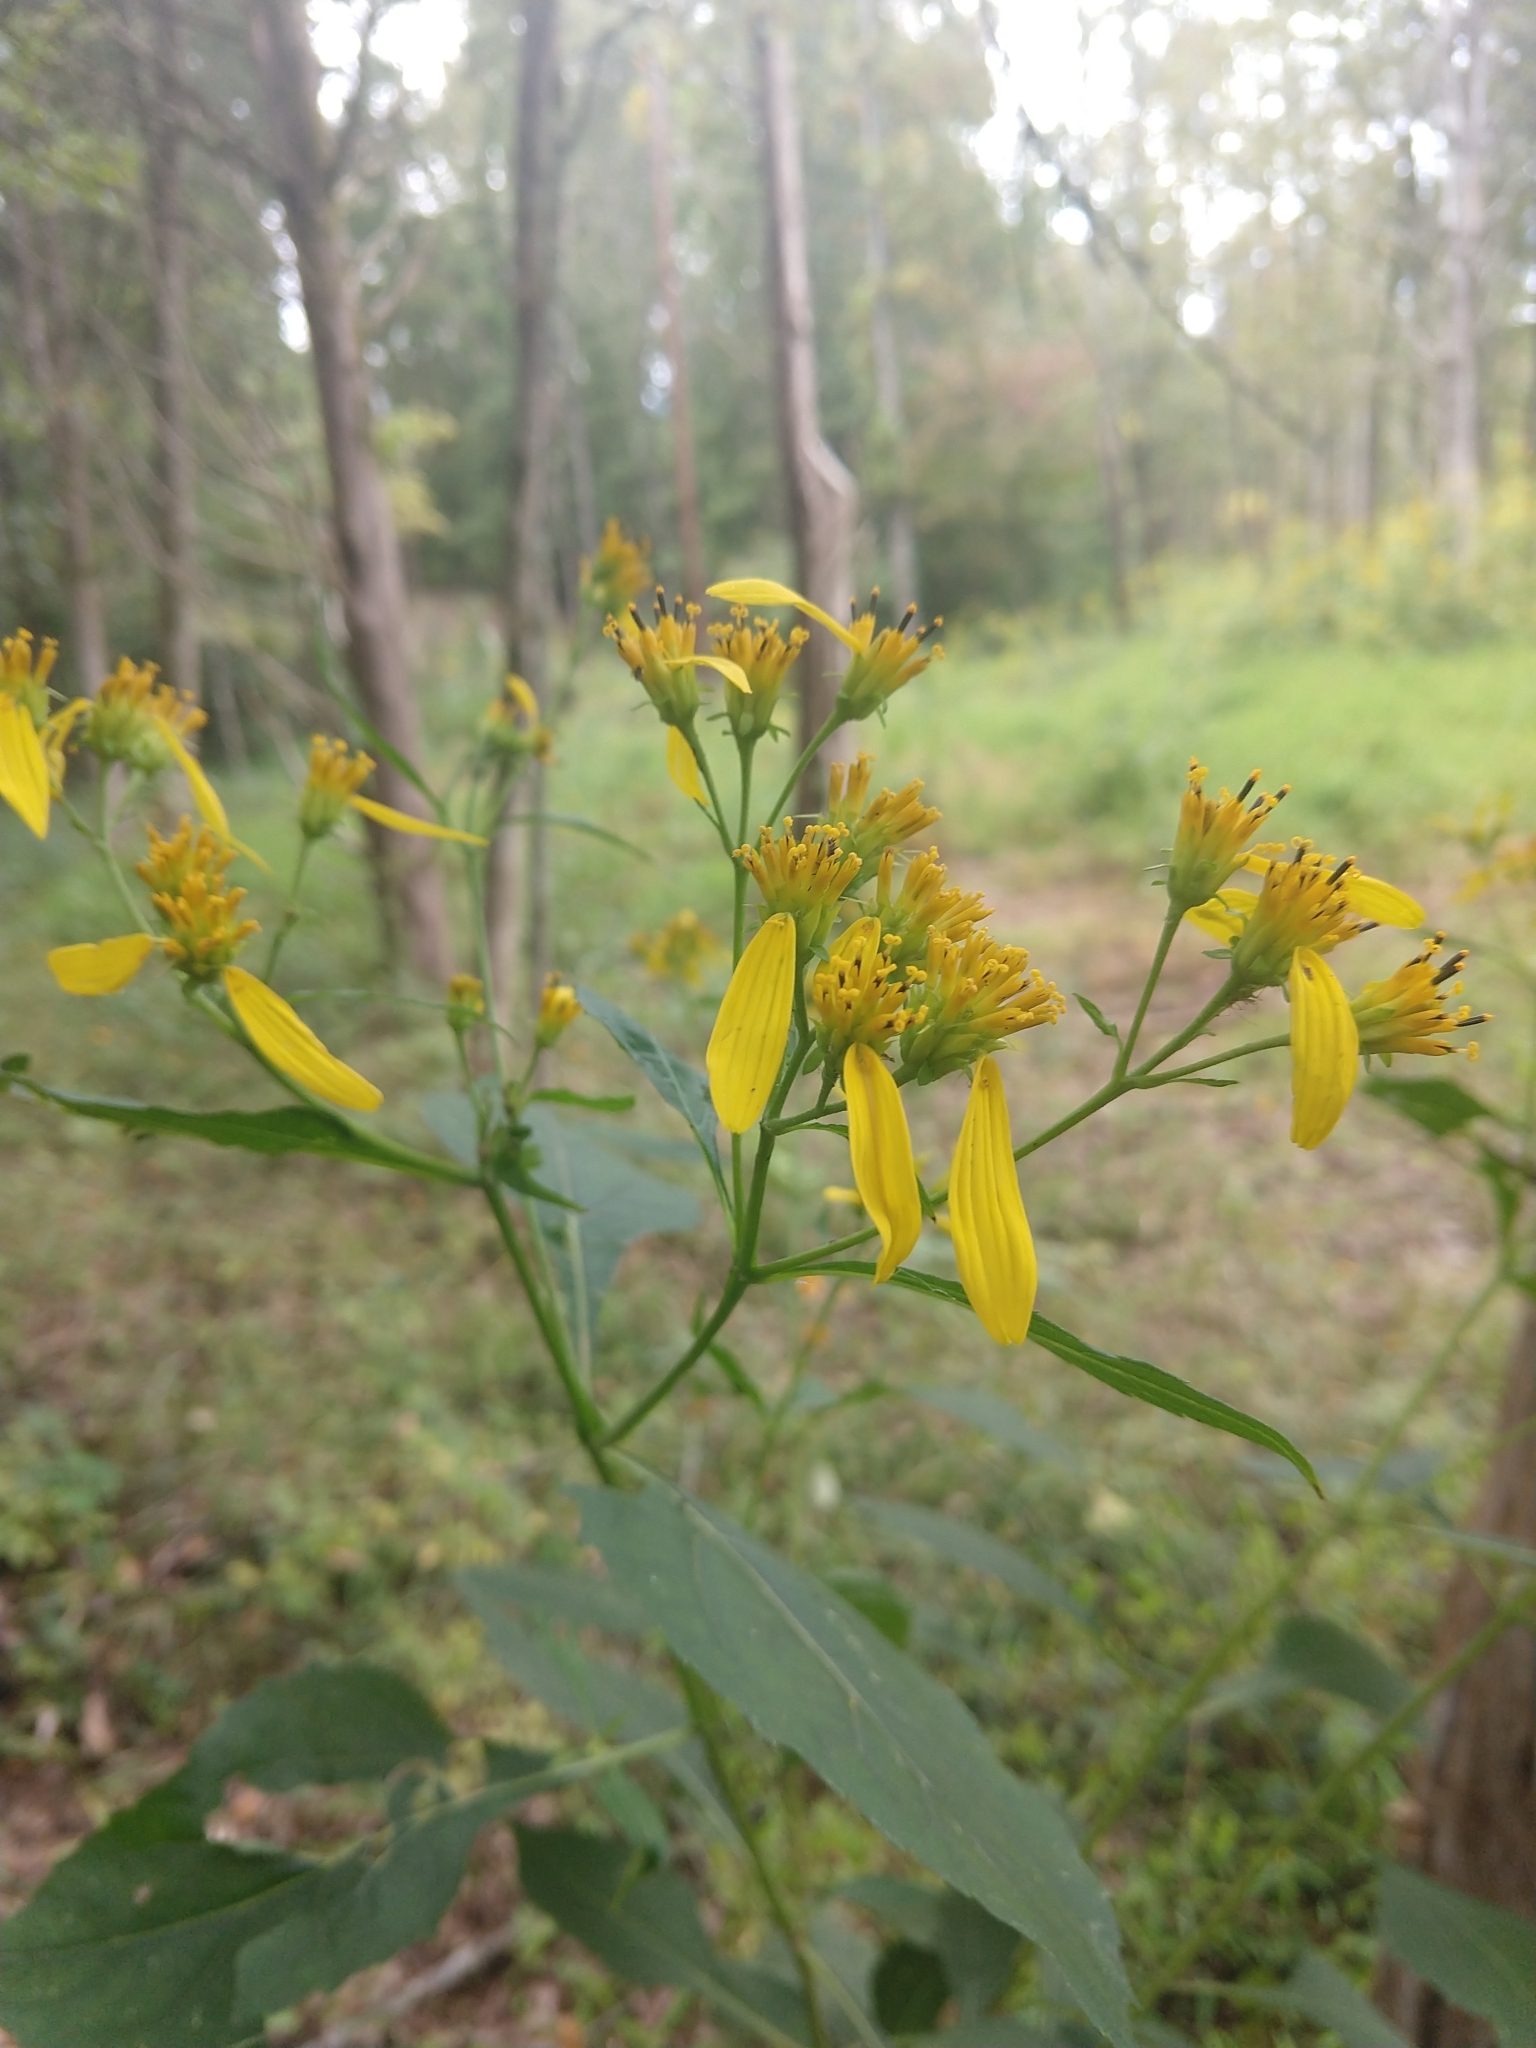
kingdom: Plantae
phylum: Tracheophyta
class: Magnoliopsida
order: Asterales
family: Asteraceae
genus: Verbesina
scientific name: Verbesina occidentalis
